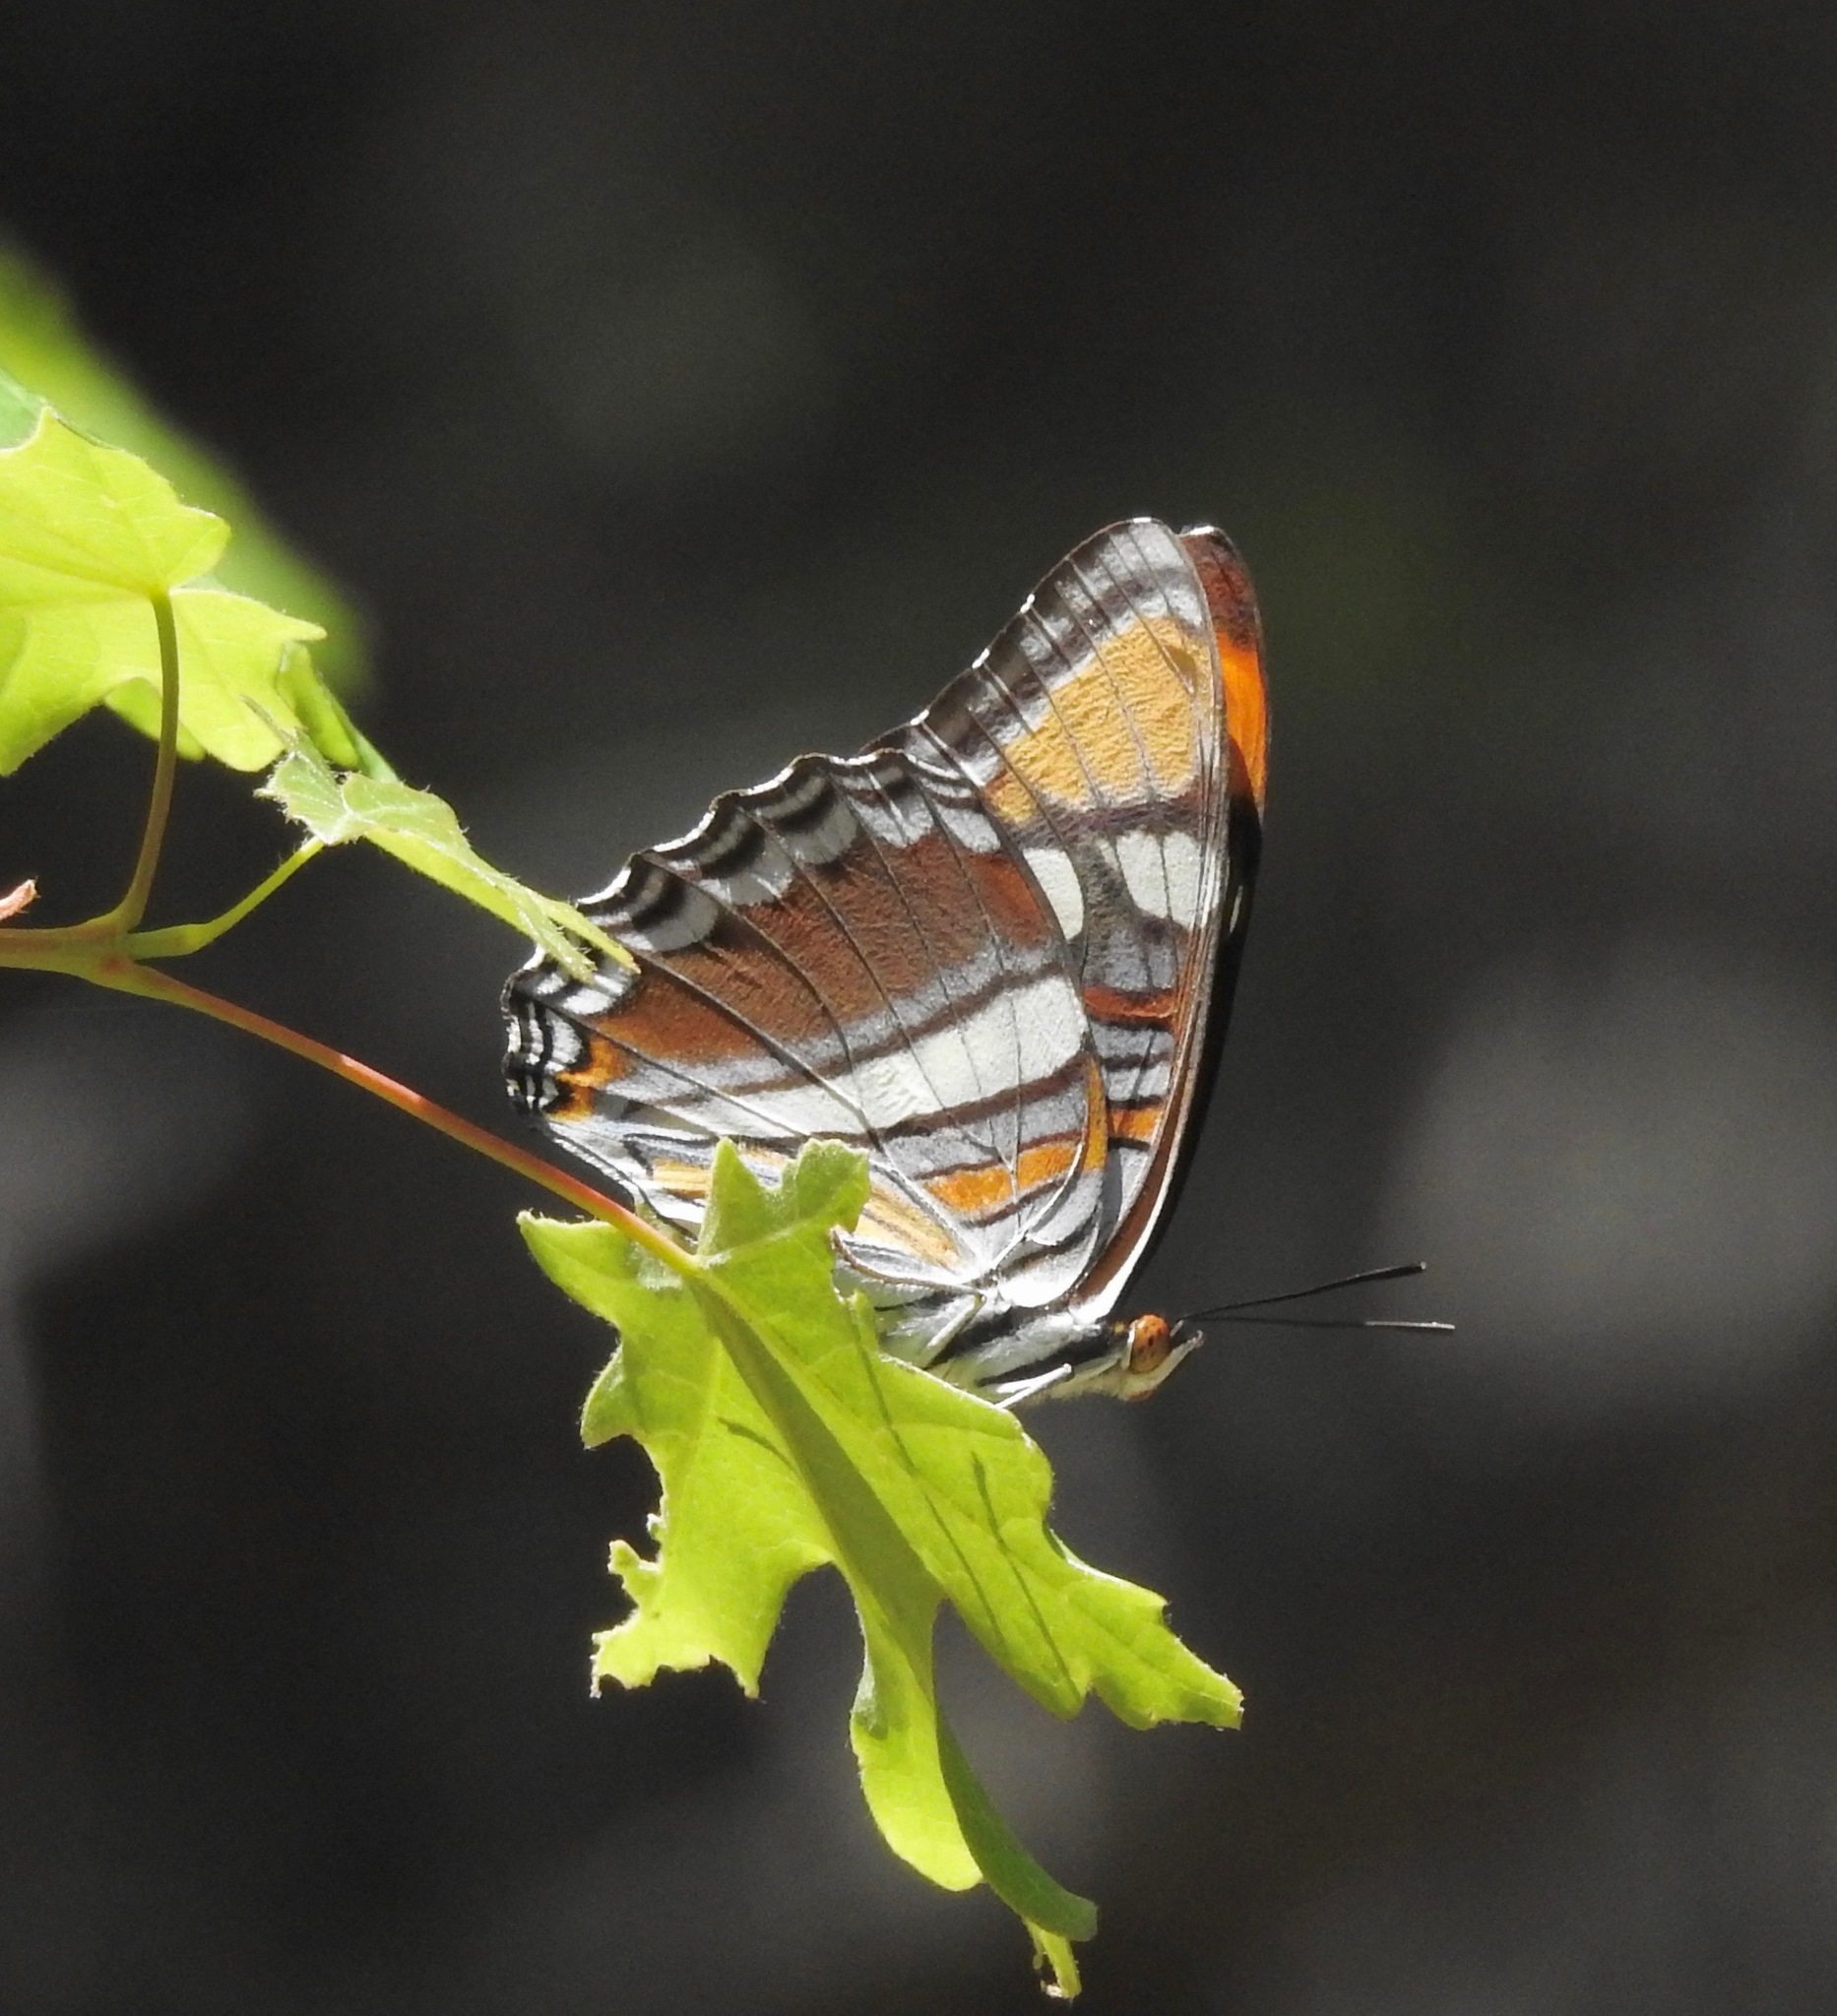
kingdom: Animalia
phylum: Arthropoda
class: Insecta
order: Lepidoptera
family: Nymphalidae
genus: Limenitis
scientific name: Limenitis bredowii
